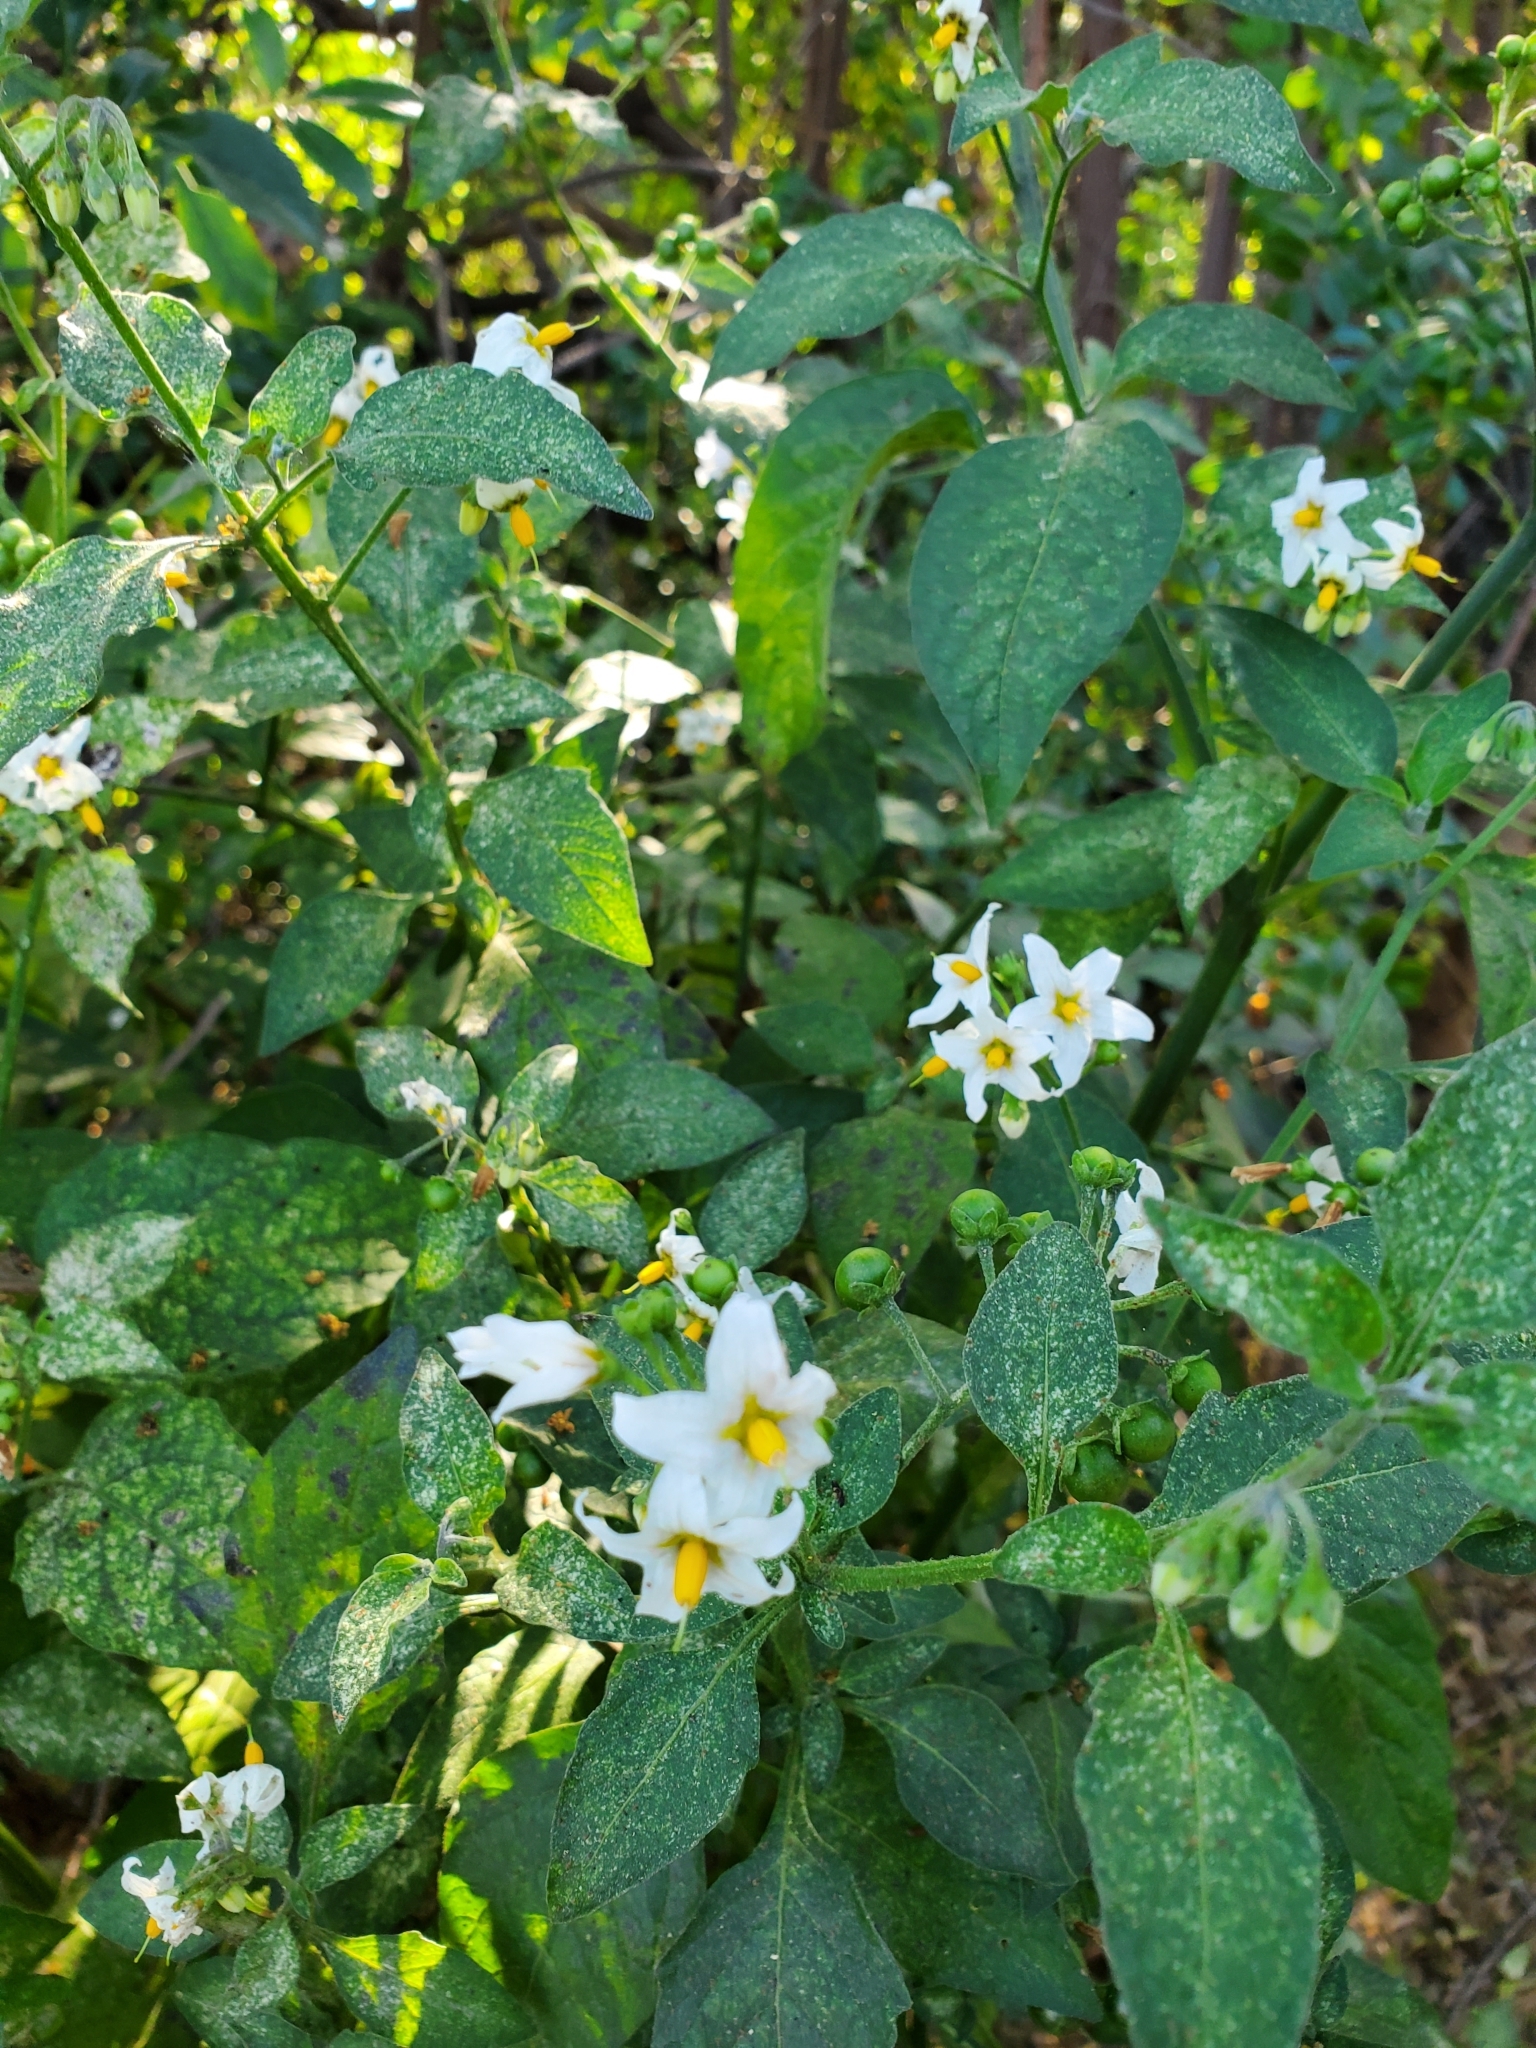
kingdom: Plantae
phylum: Tracheophyta
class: Magnoliopsida
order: Solanales
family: Solanaceae
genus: Solanum
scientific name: Solanum douglasii
